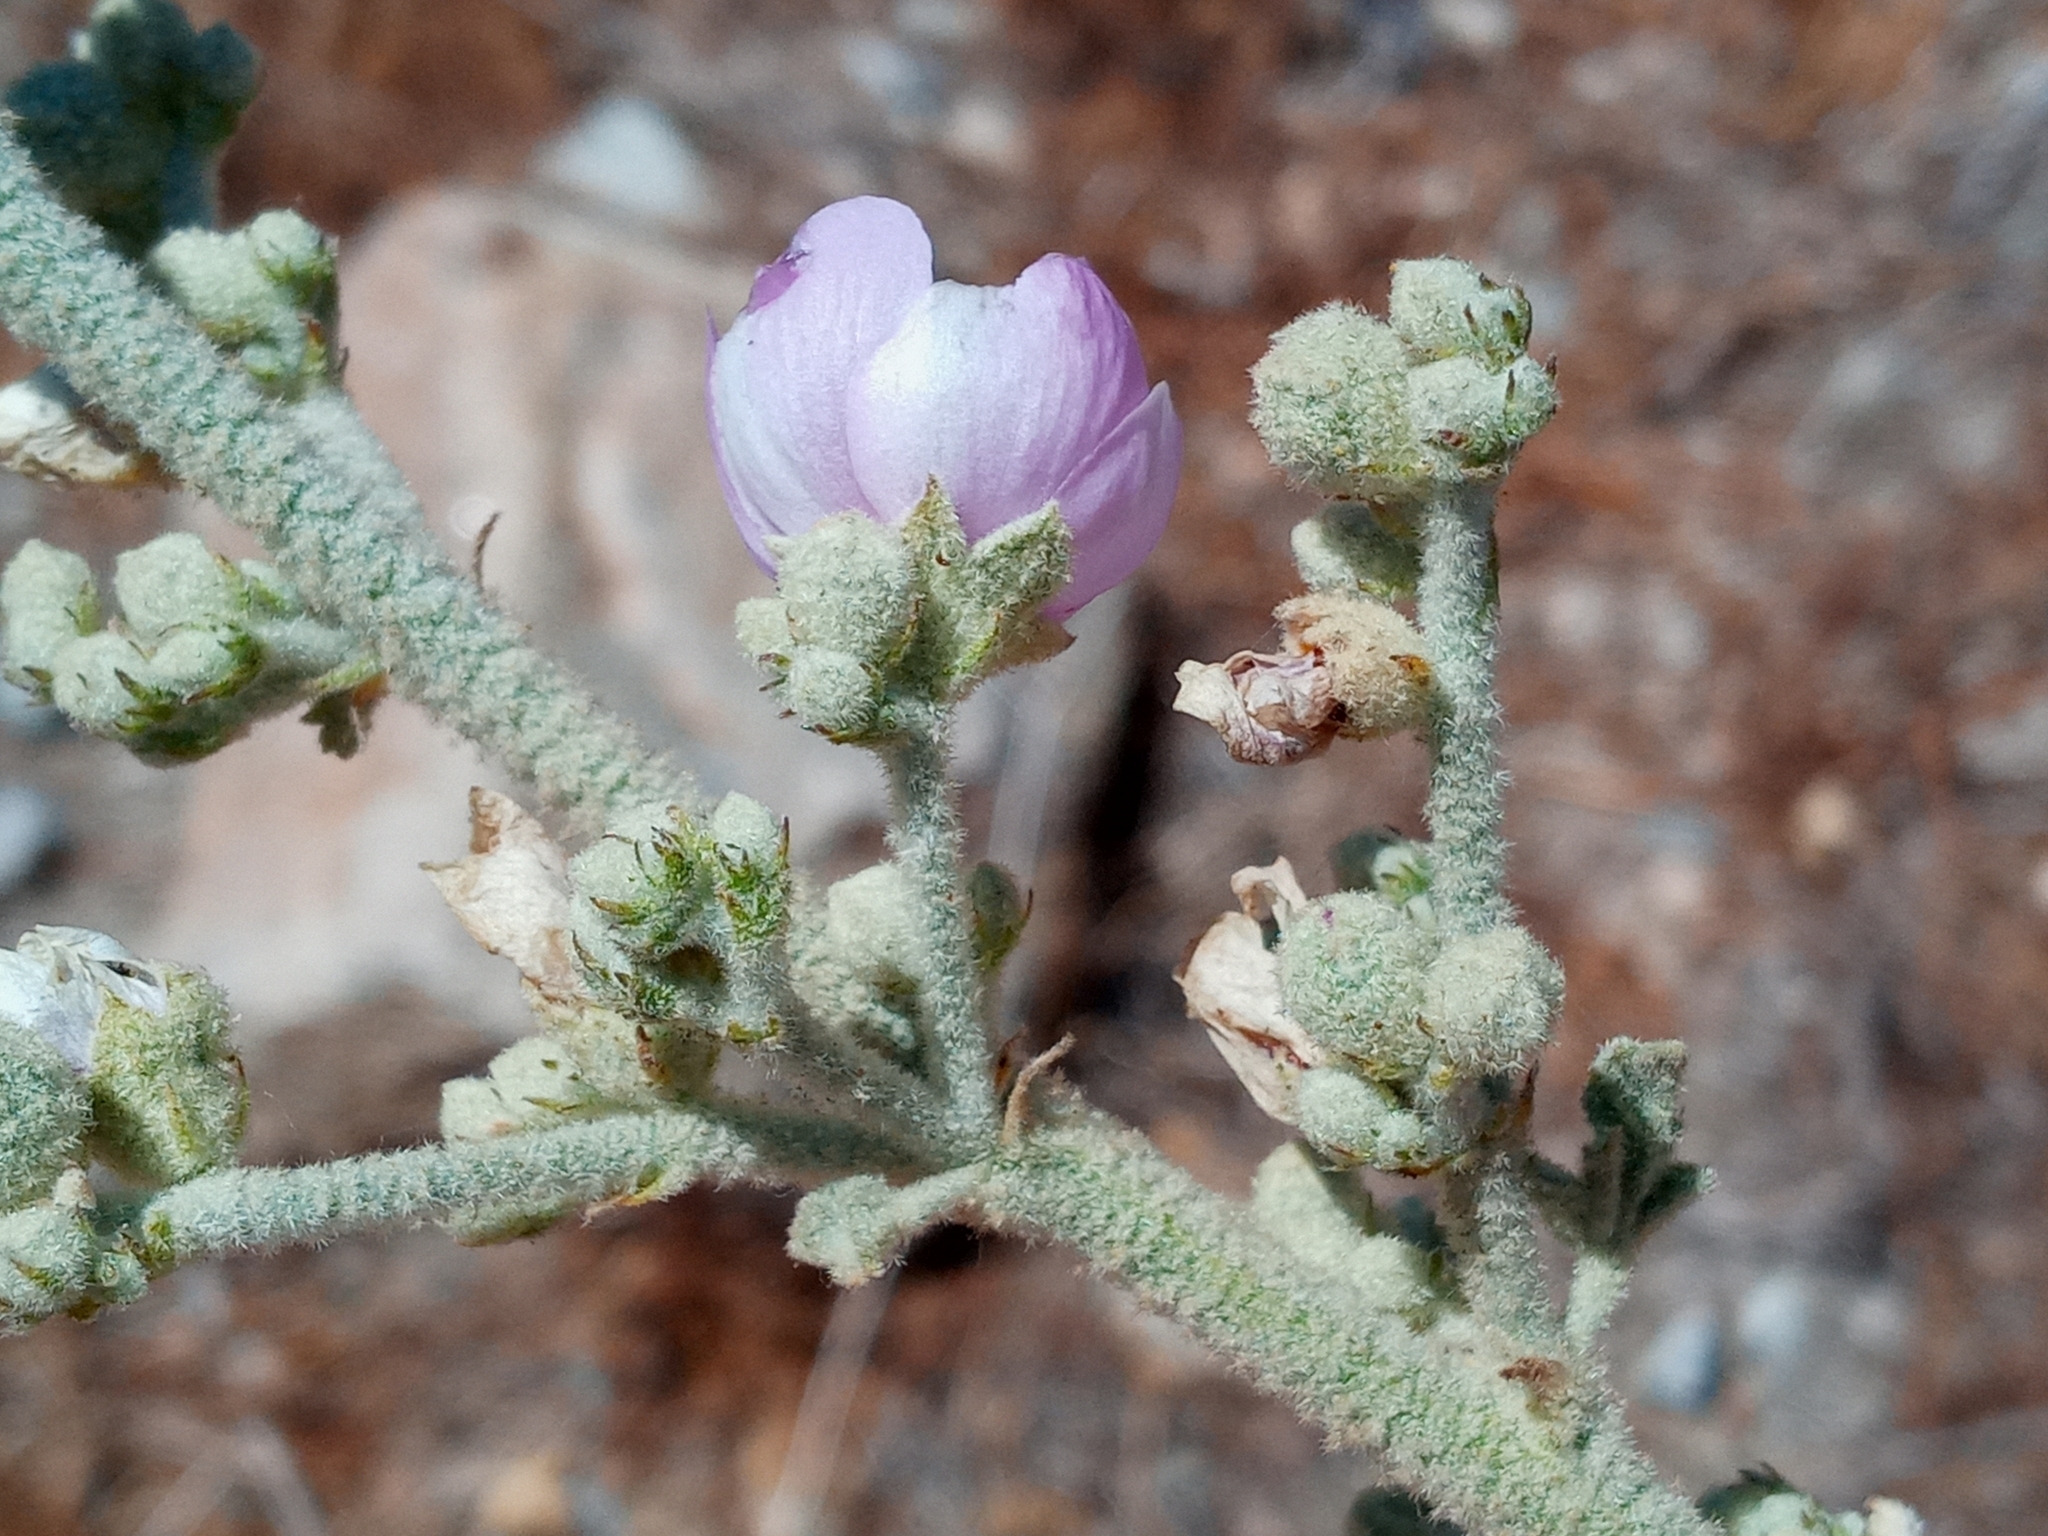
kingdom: Plantae
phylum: Tracheophyta
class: Magnoliopsida
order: Malvales
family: Malvaceae
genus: Malacothamnus
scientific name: Malacothamnus davidsonii
